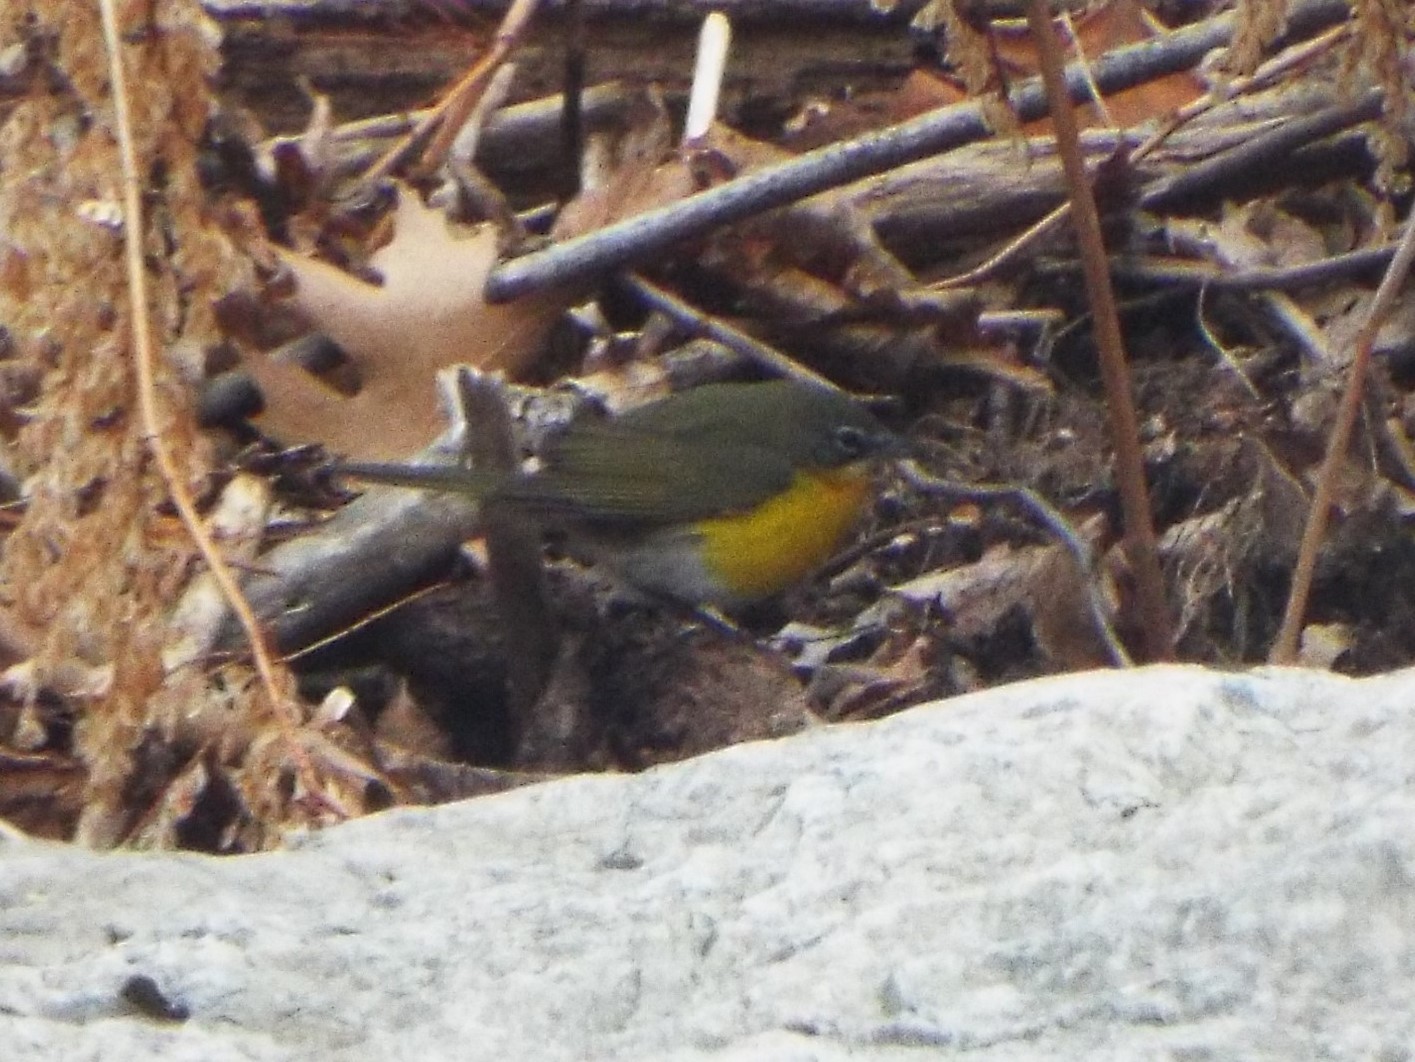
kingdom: Animalia
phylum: Chordata
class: Aves
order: Passeriformes
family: Parulidae
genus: Icteria
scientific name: Icteria virens
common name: Yellow-breasted chat
